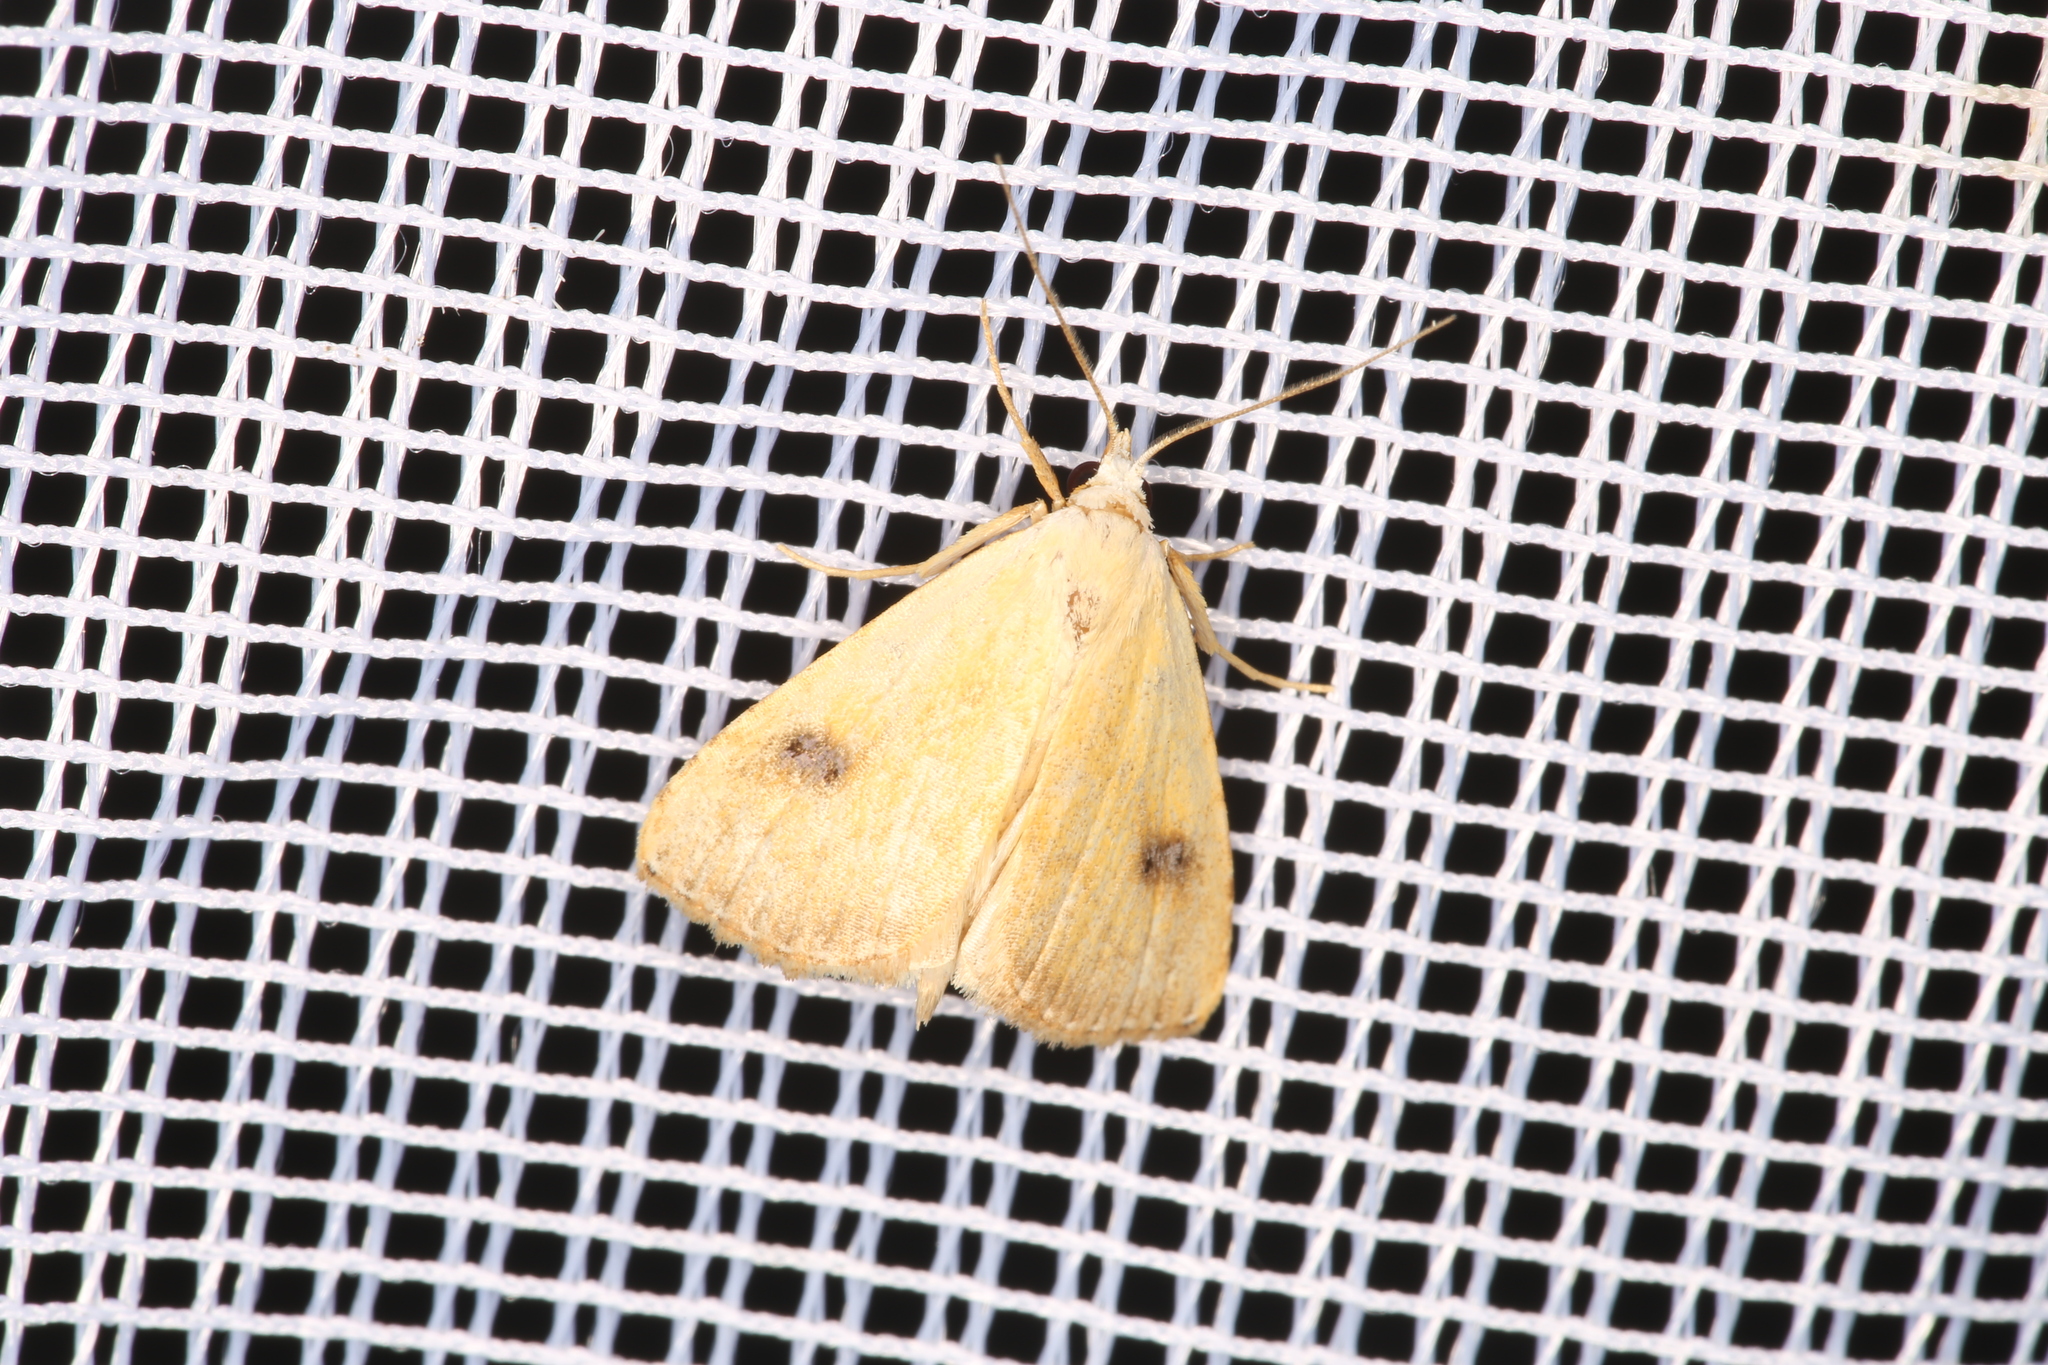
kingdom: Animalia
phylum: Arthropoda
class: Insecta
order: Lepidoptera
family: Erebidae
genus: Rivula
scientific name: Rivula sericealis
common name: Straw dot
